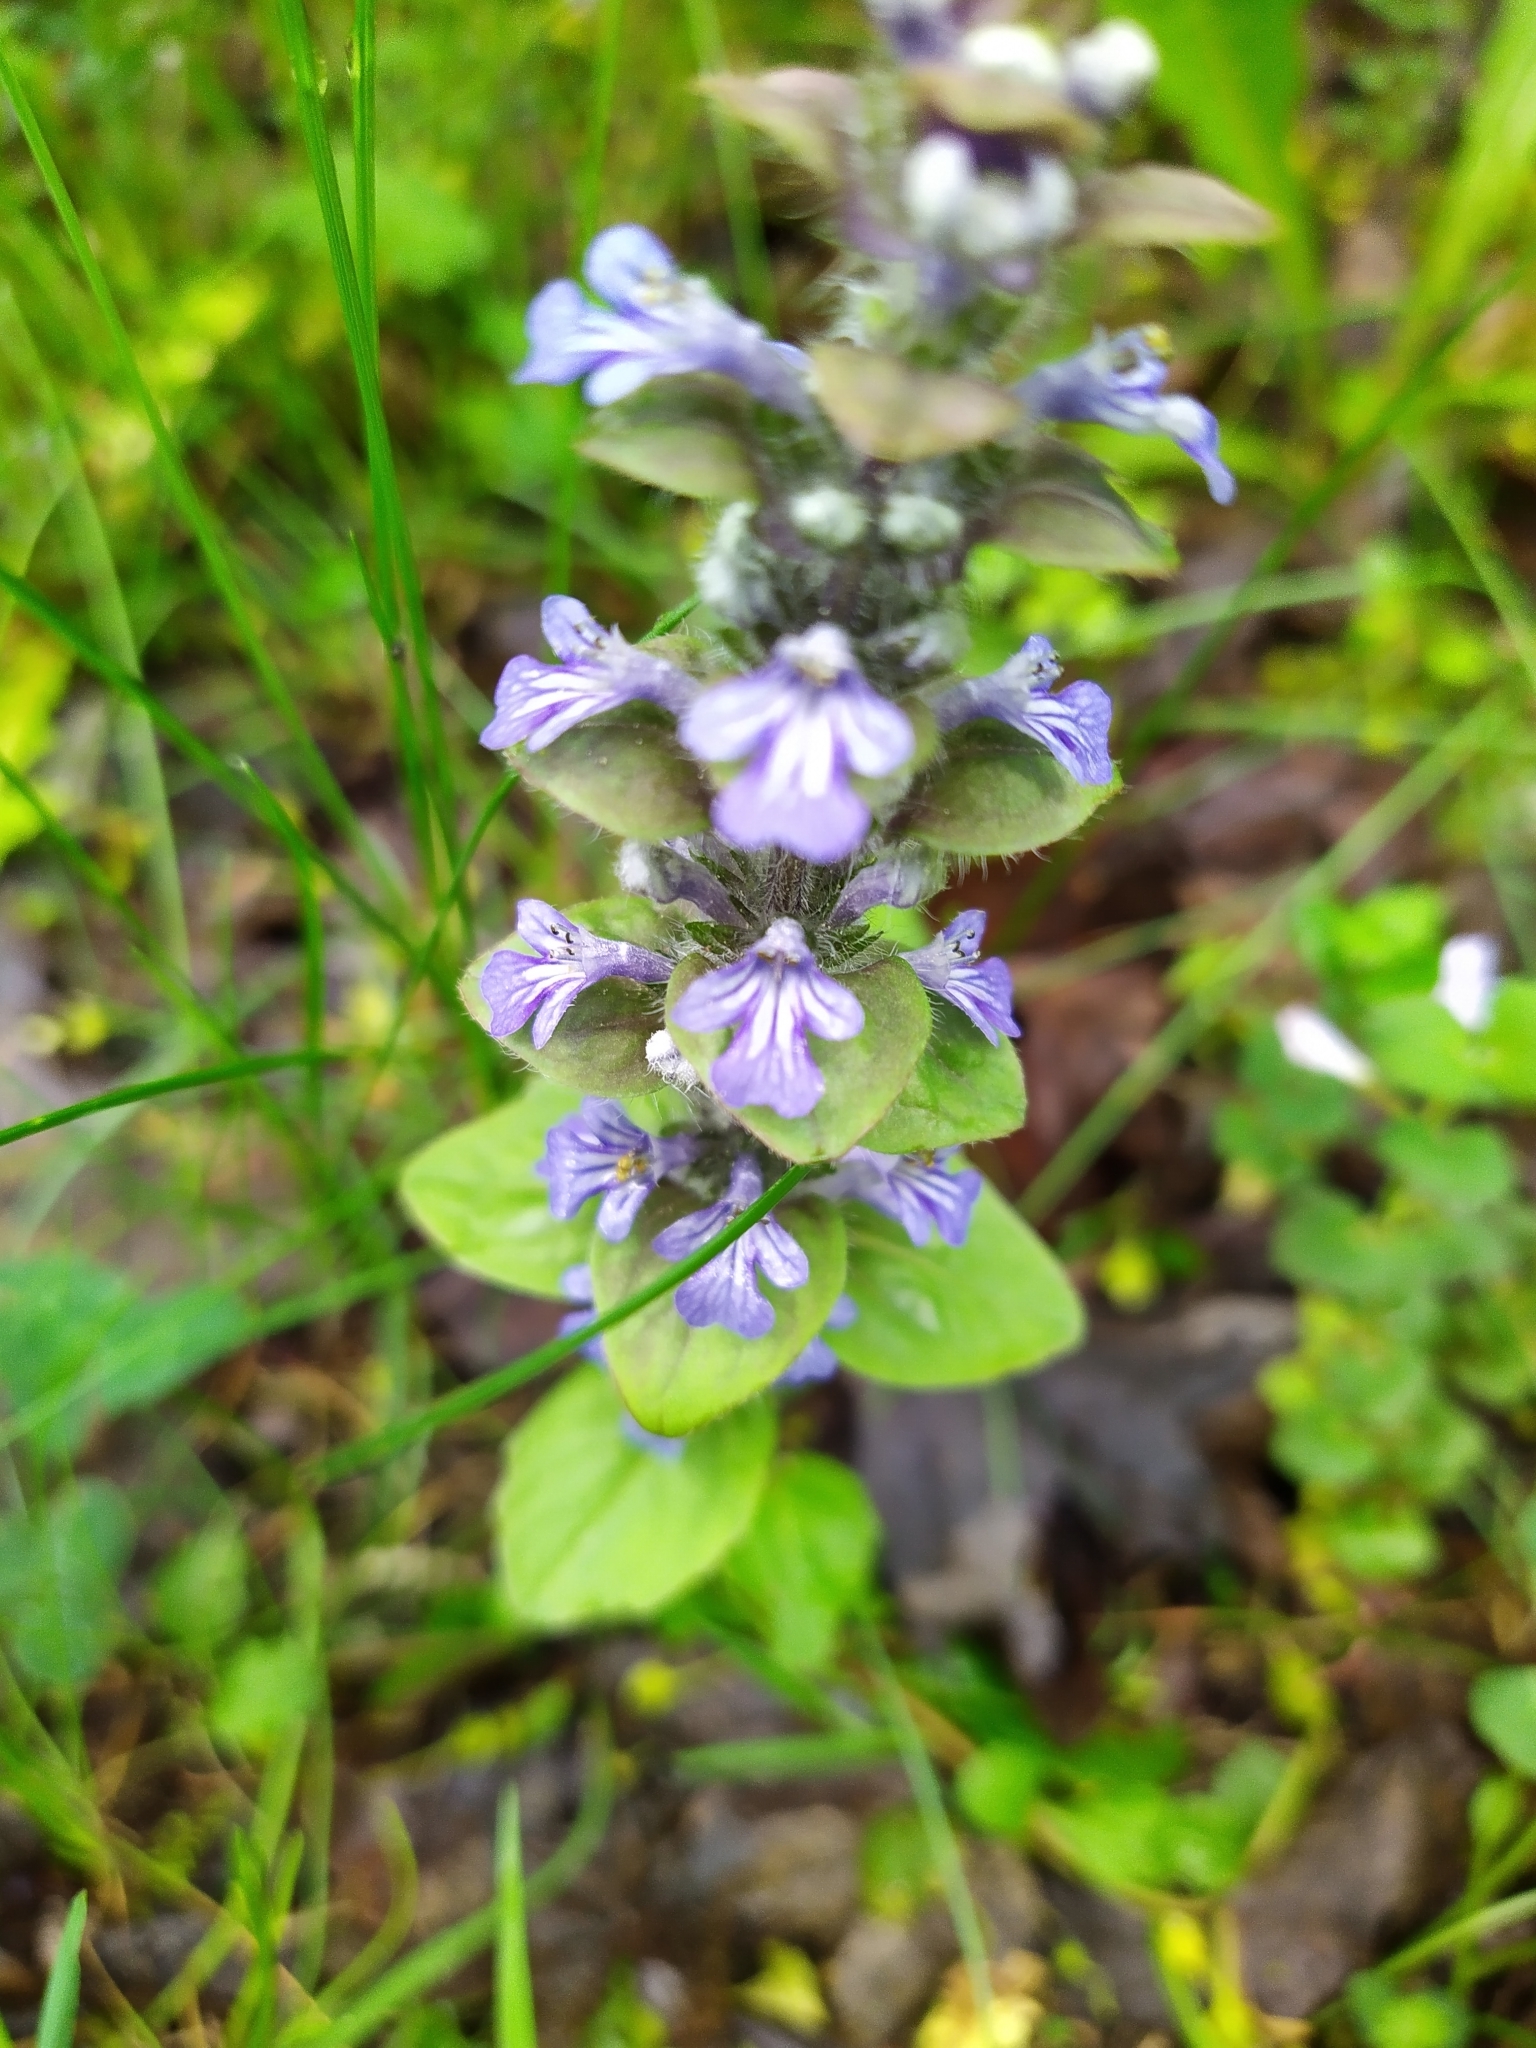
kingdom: Plantae
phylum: Tracheophyta
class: Magnoliopsida
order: Lamiales
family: Lamiaceae
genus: Ajuga
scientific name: Ajuga reptans
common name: Bugle
